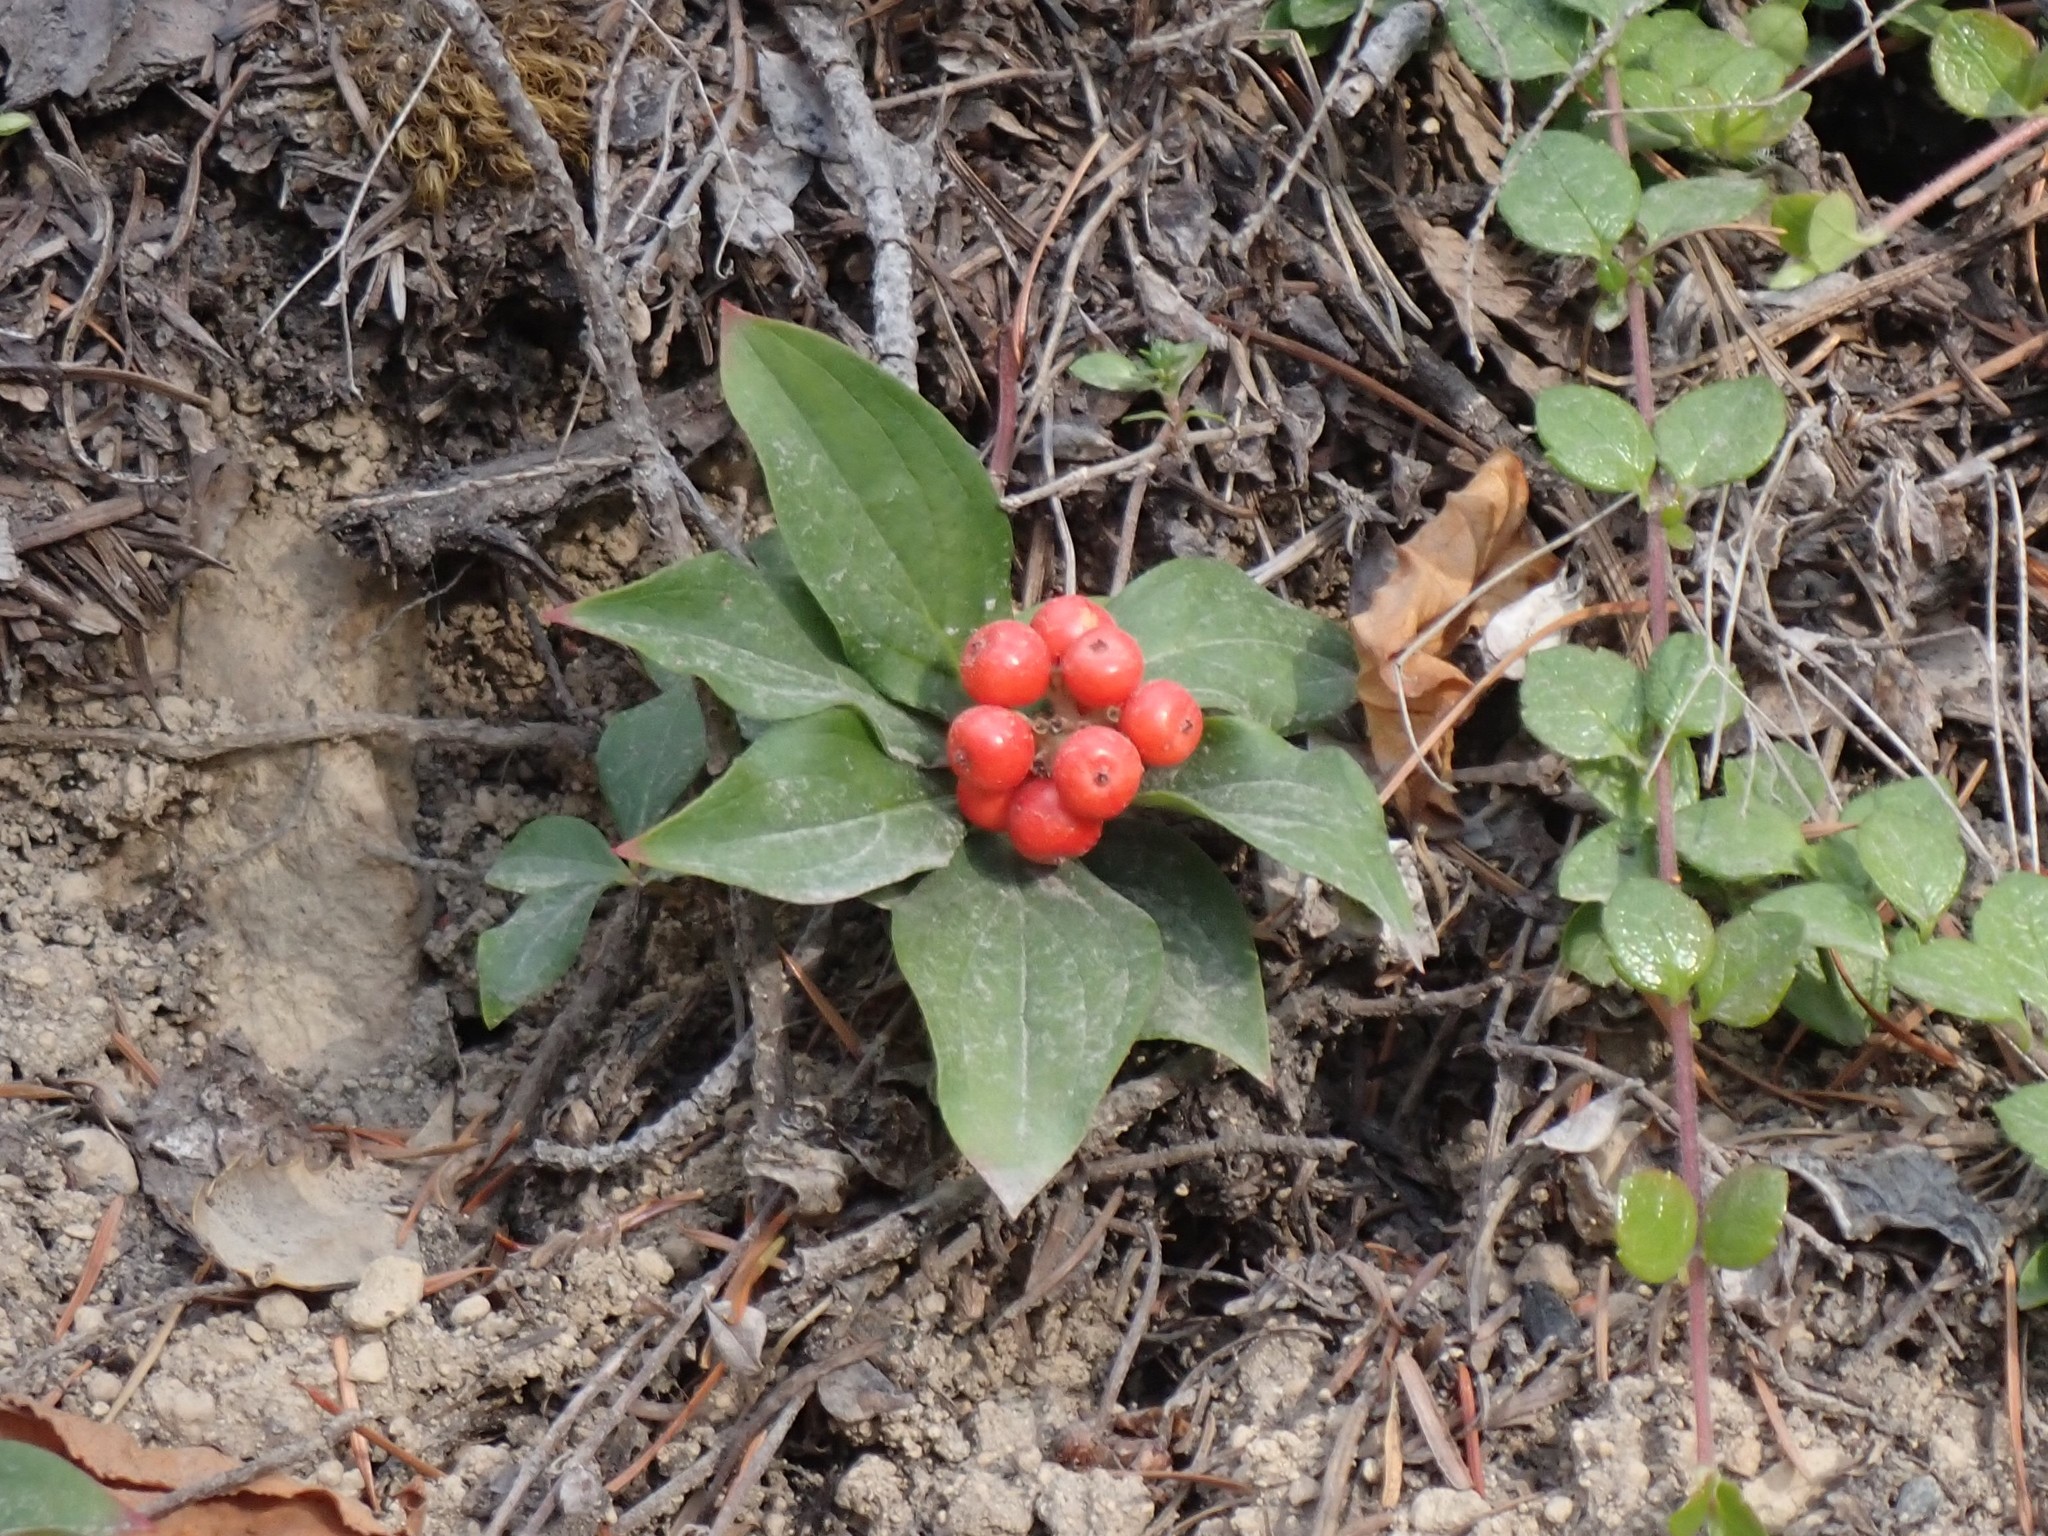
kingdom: Plantae
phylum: Tracheophyta
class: Magnoliopsida
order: Cornales
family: Cornaceae
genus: Cornus
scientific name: Cornus unalaschkensis
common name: Alaska bunchberry
